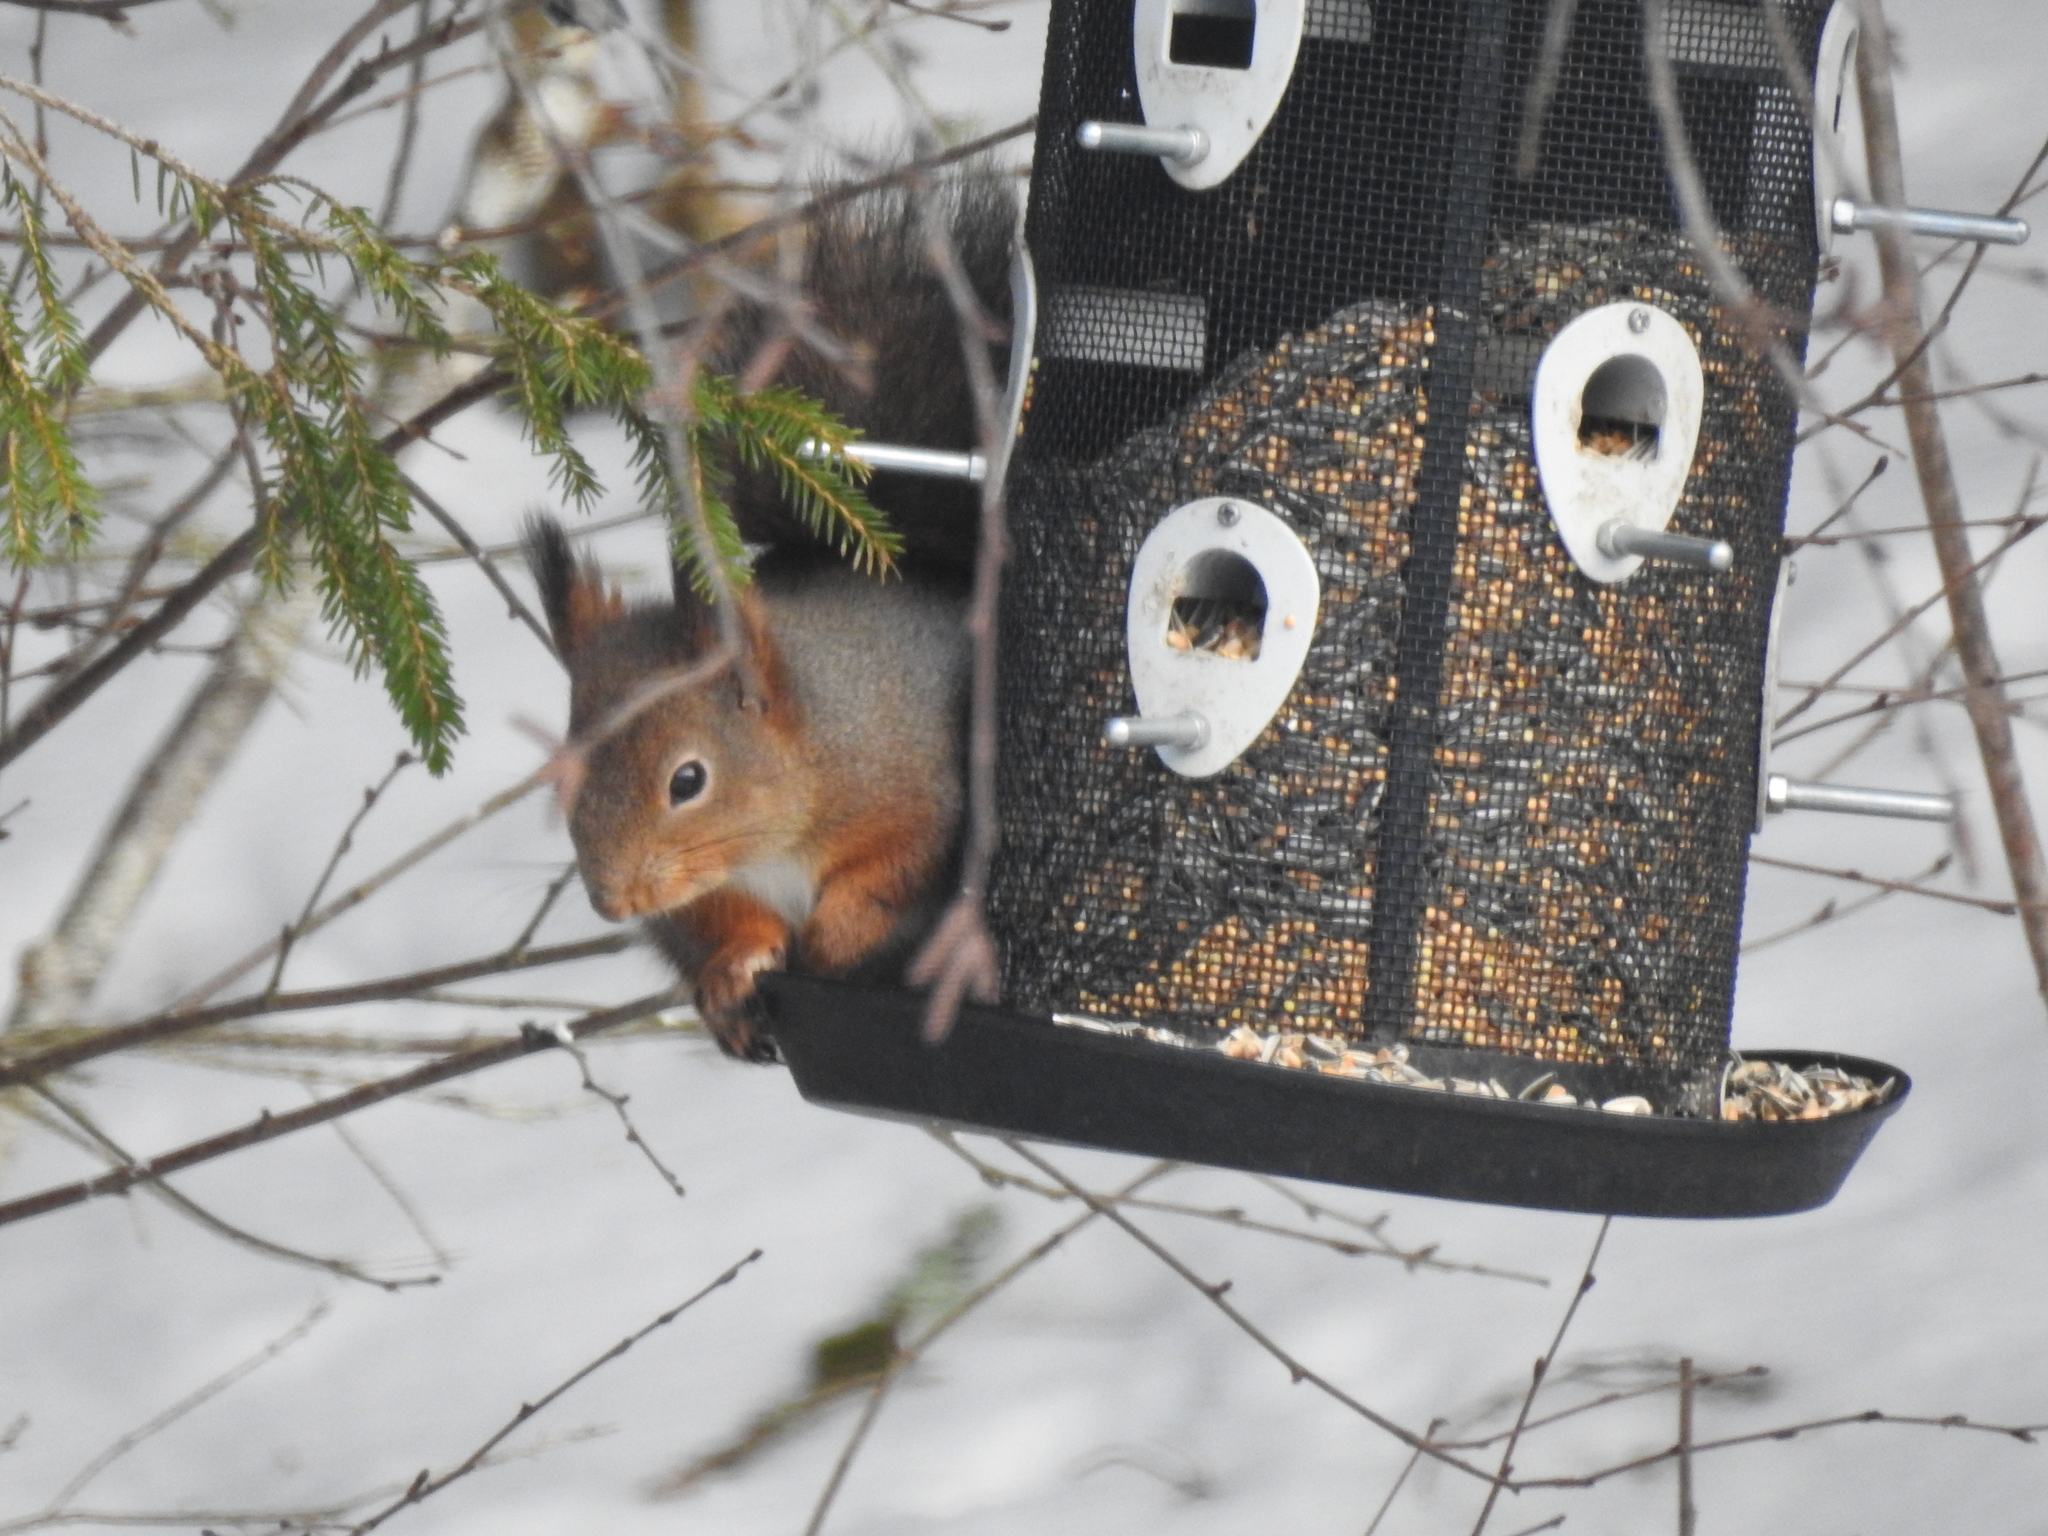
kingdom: Animalia
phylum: Chordata
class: Mammalia
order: Rodentia
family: Sciuridae
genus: Sciurus
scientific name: Sciurus vulgaris
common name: Eurasian red squirrel
